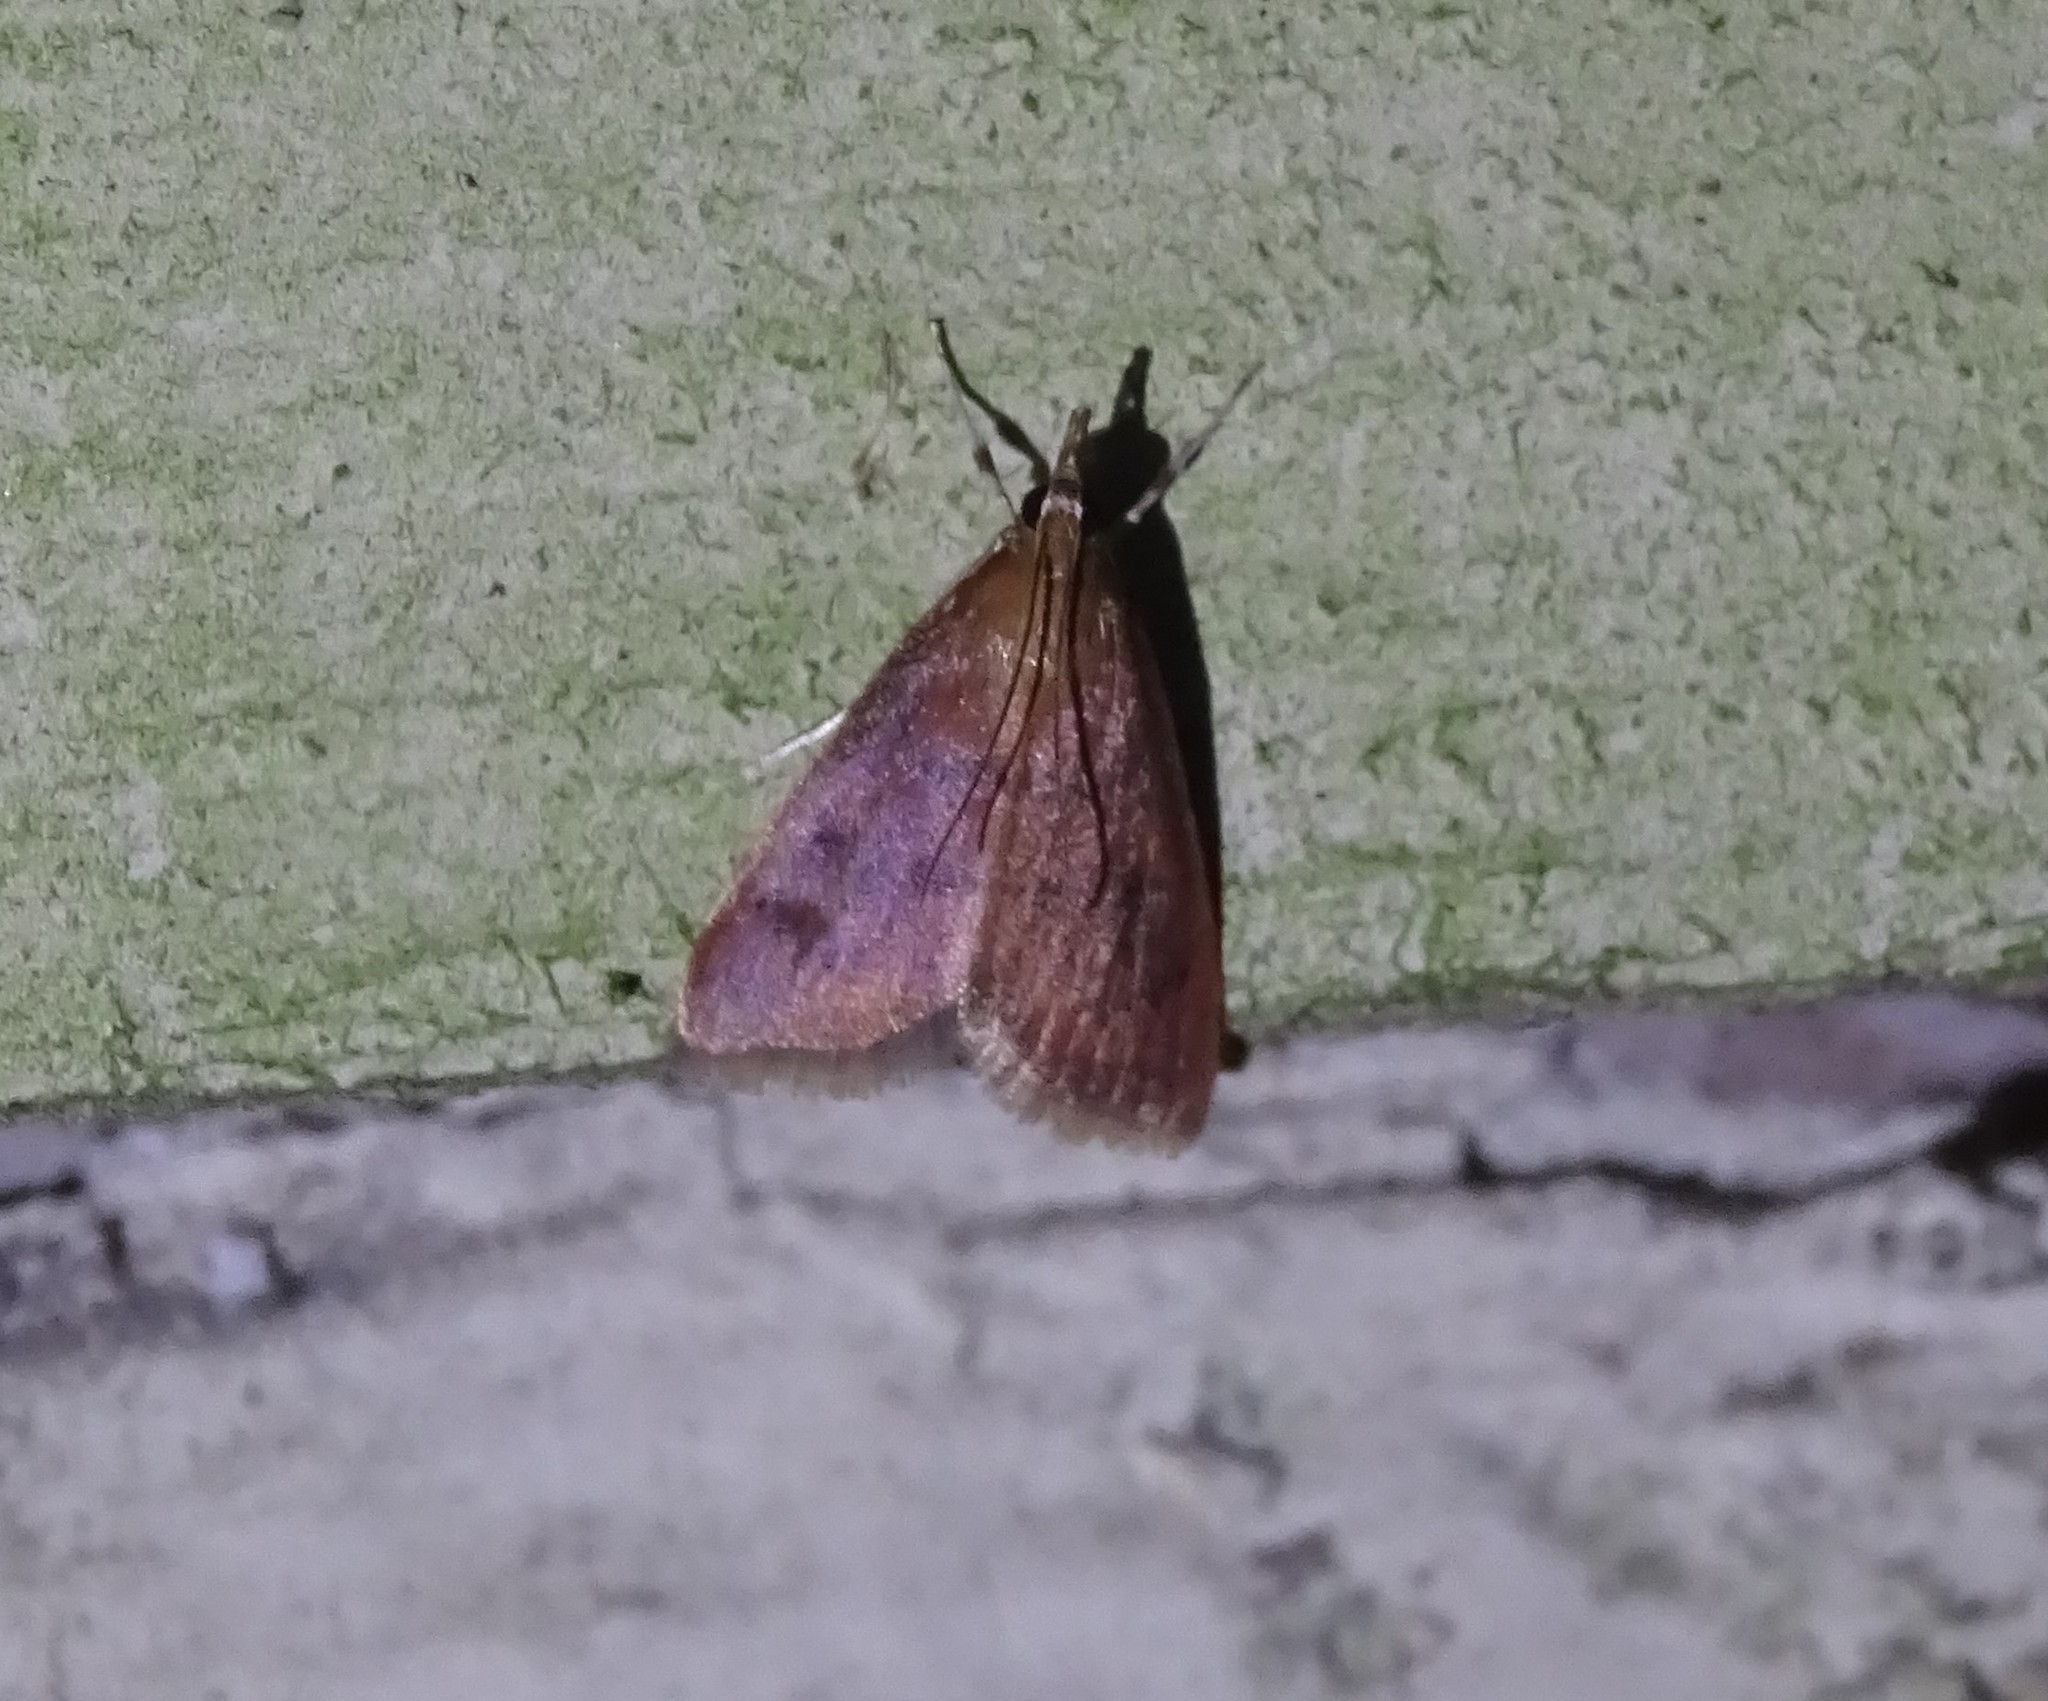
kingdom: Animalia
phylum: Arthropoda
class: Insecta
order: Lepidoptera
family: Crambidae
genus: Uresiphita
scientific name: Uresiphita reversalis
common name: Genista broom moth
